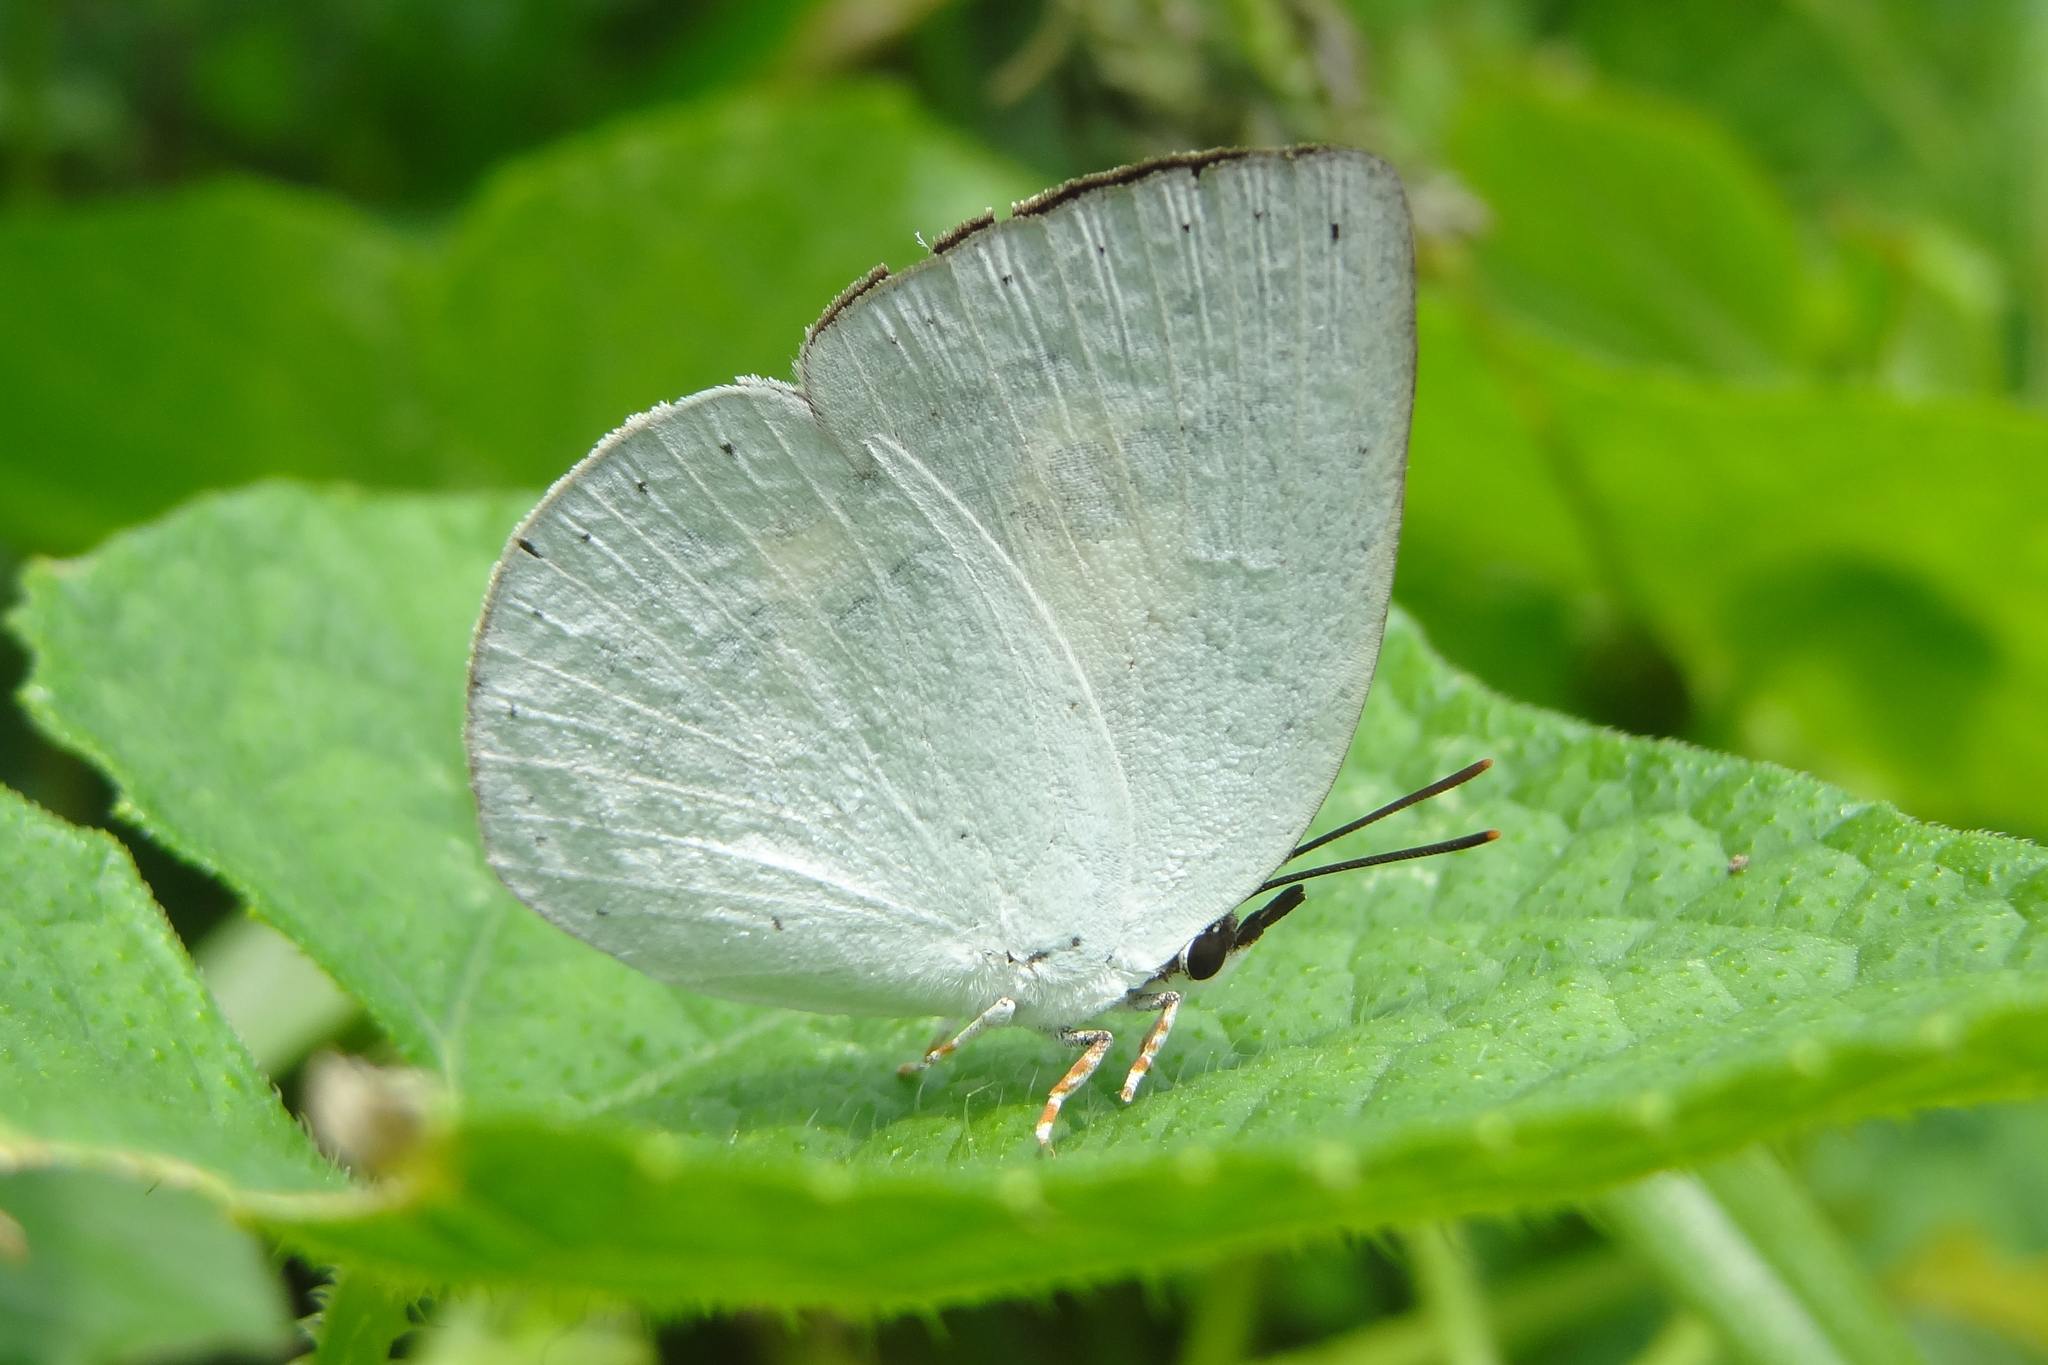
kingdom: Animalia
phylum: Arthropoda
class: Insecta
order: Lepidoptera
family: Lycaenidae
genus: Curetis
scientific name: Curetis thetis
